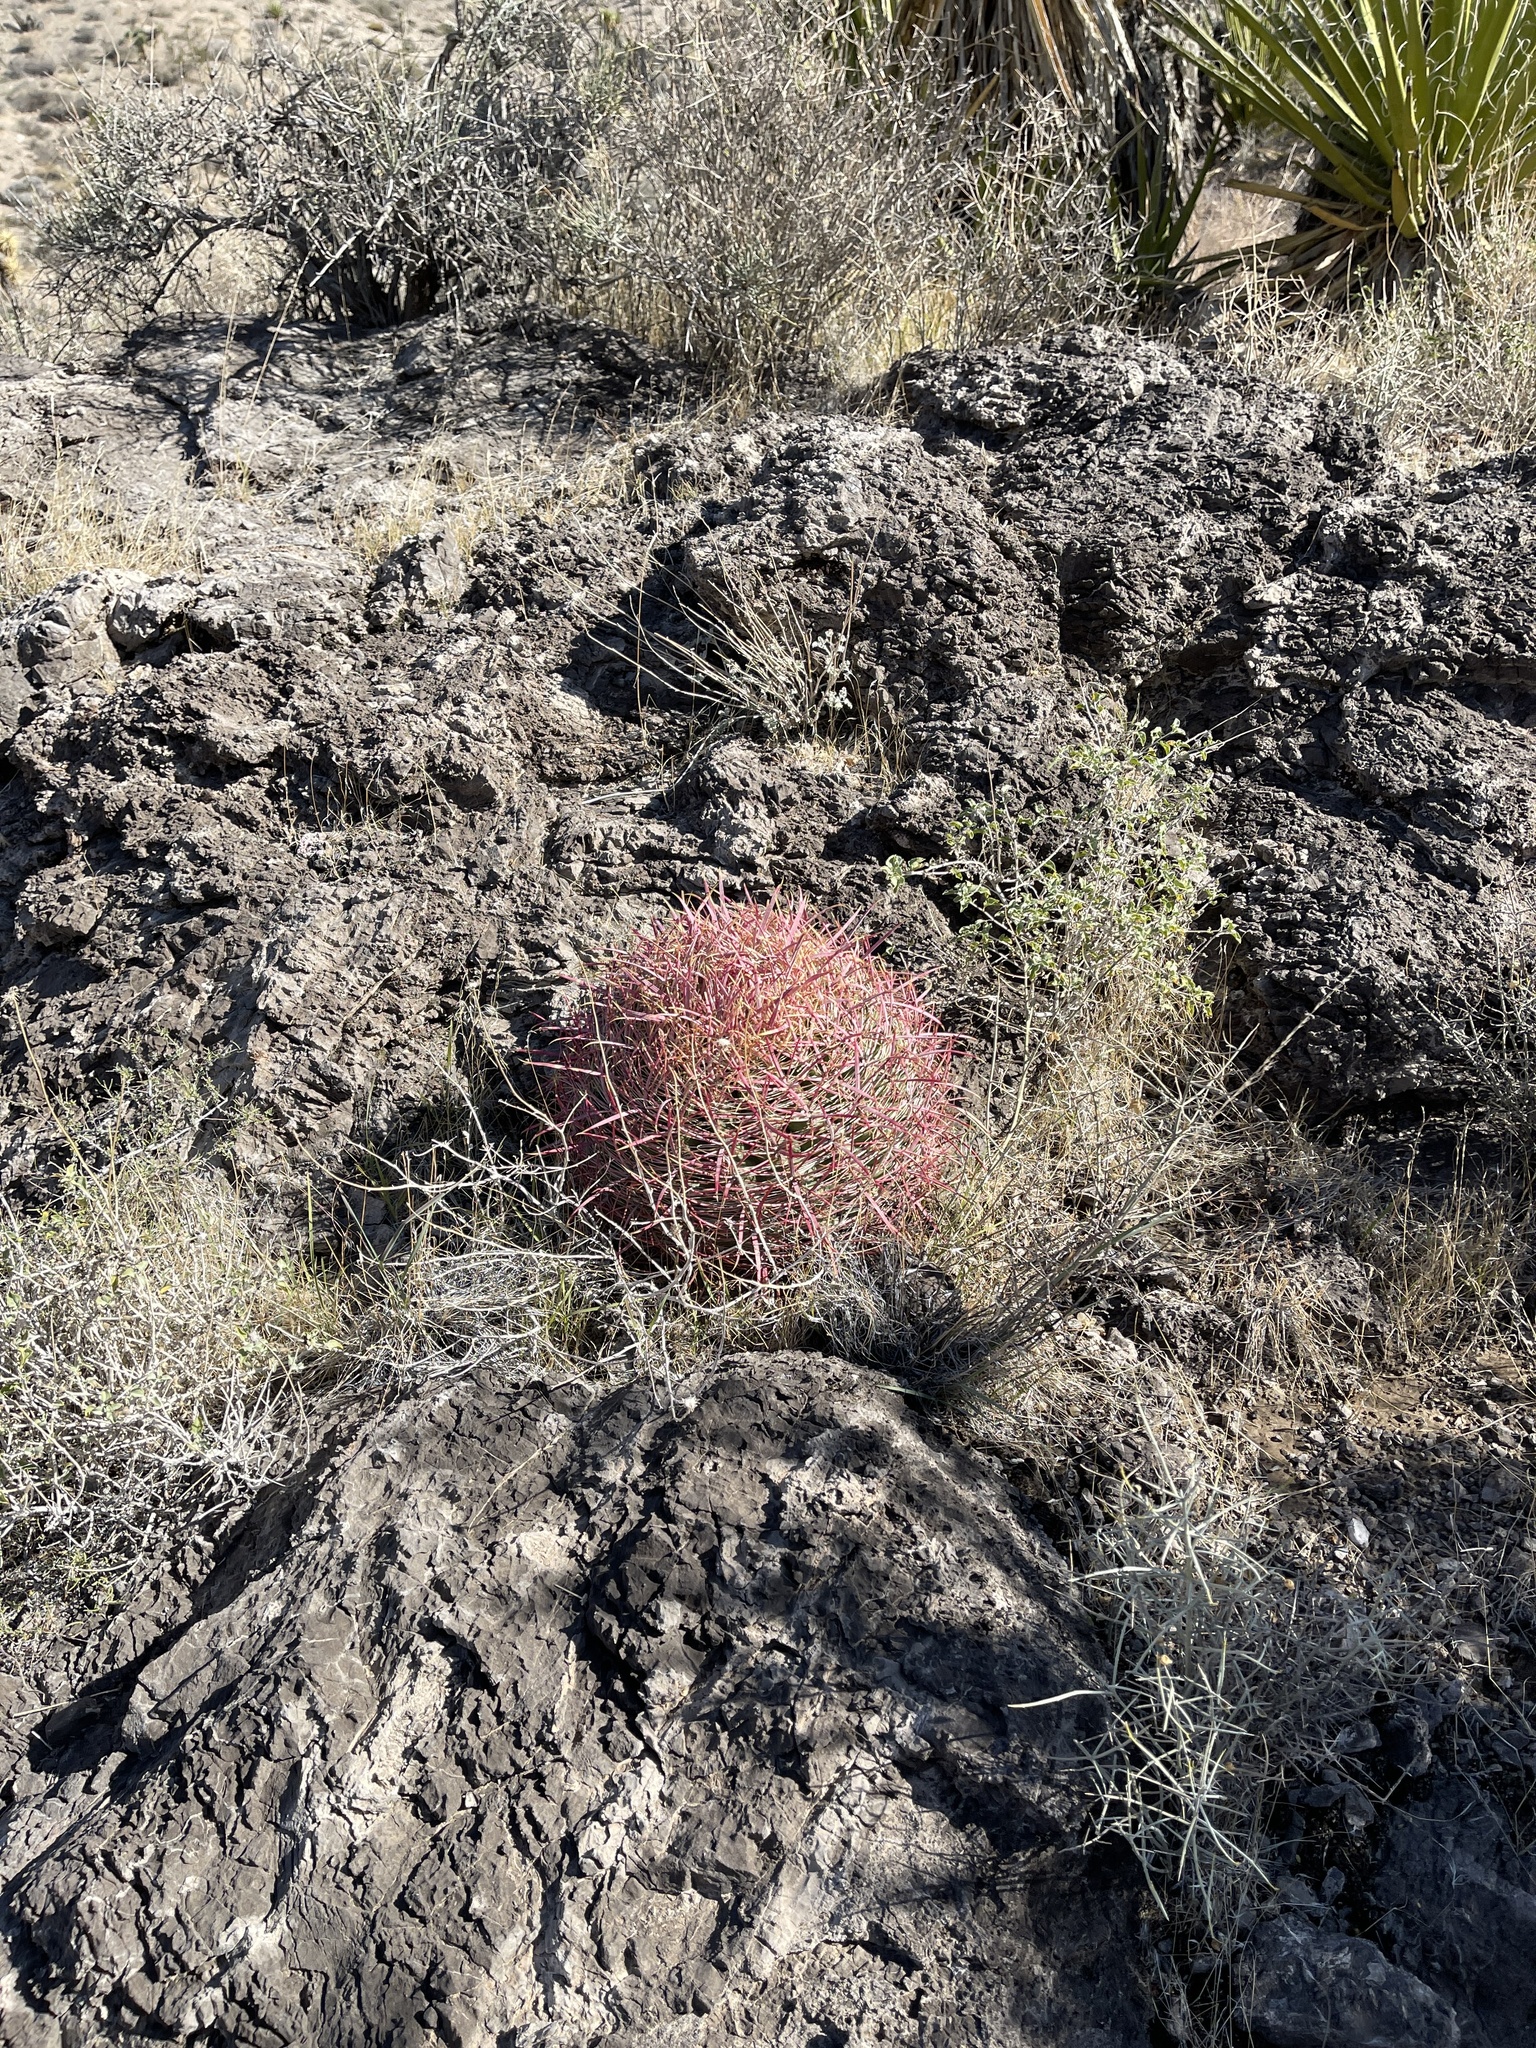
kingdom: Plantae
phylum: Tracheophyta
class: Magnoliopsida
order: Caryophyllales
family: Cactaceae
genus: Ferocactus
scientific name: Ferocactus cylindraceus
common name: California barrel cactus
